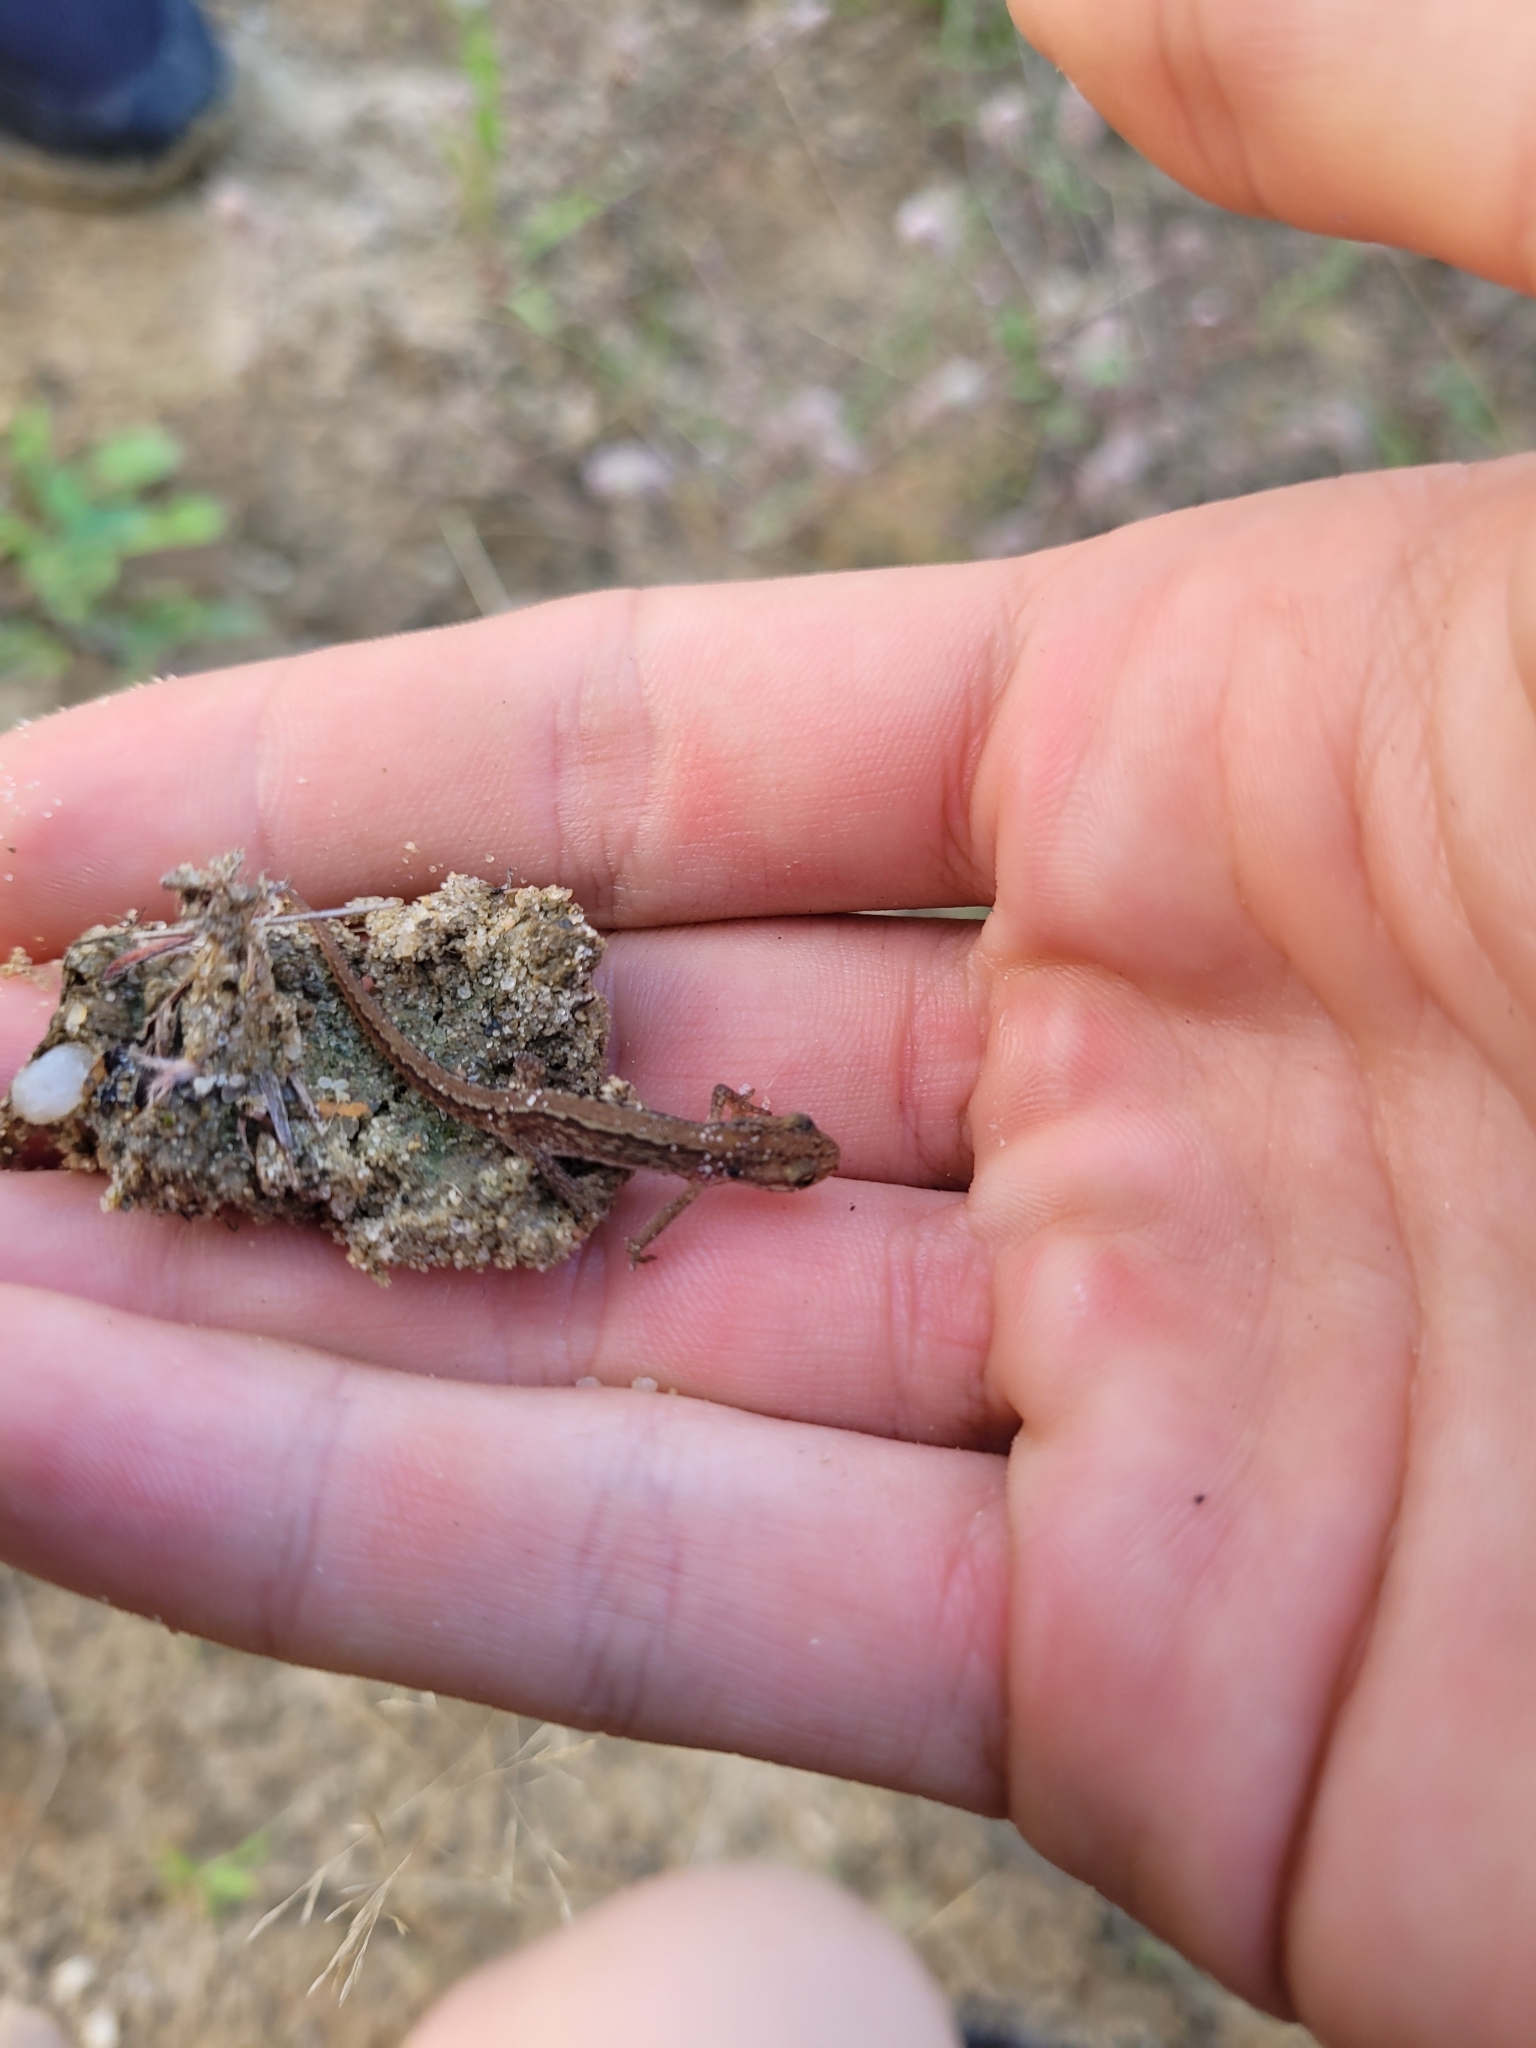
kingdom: Animalia
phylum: Chordata
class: Amphibia
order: Caudata
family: Salamandridae
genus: Lissotriton
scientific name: Lissotriton vulgaris
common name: Smooth newt
